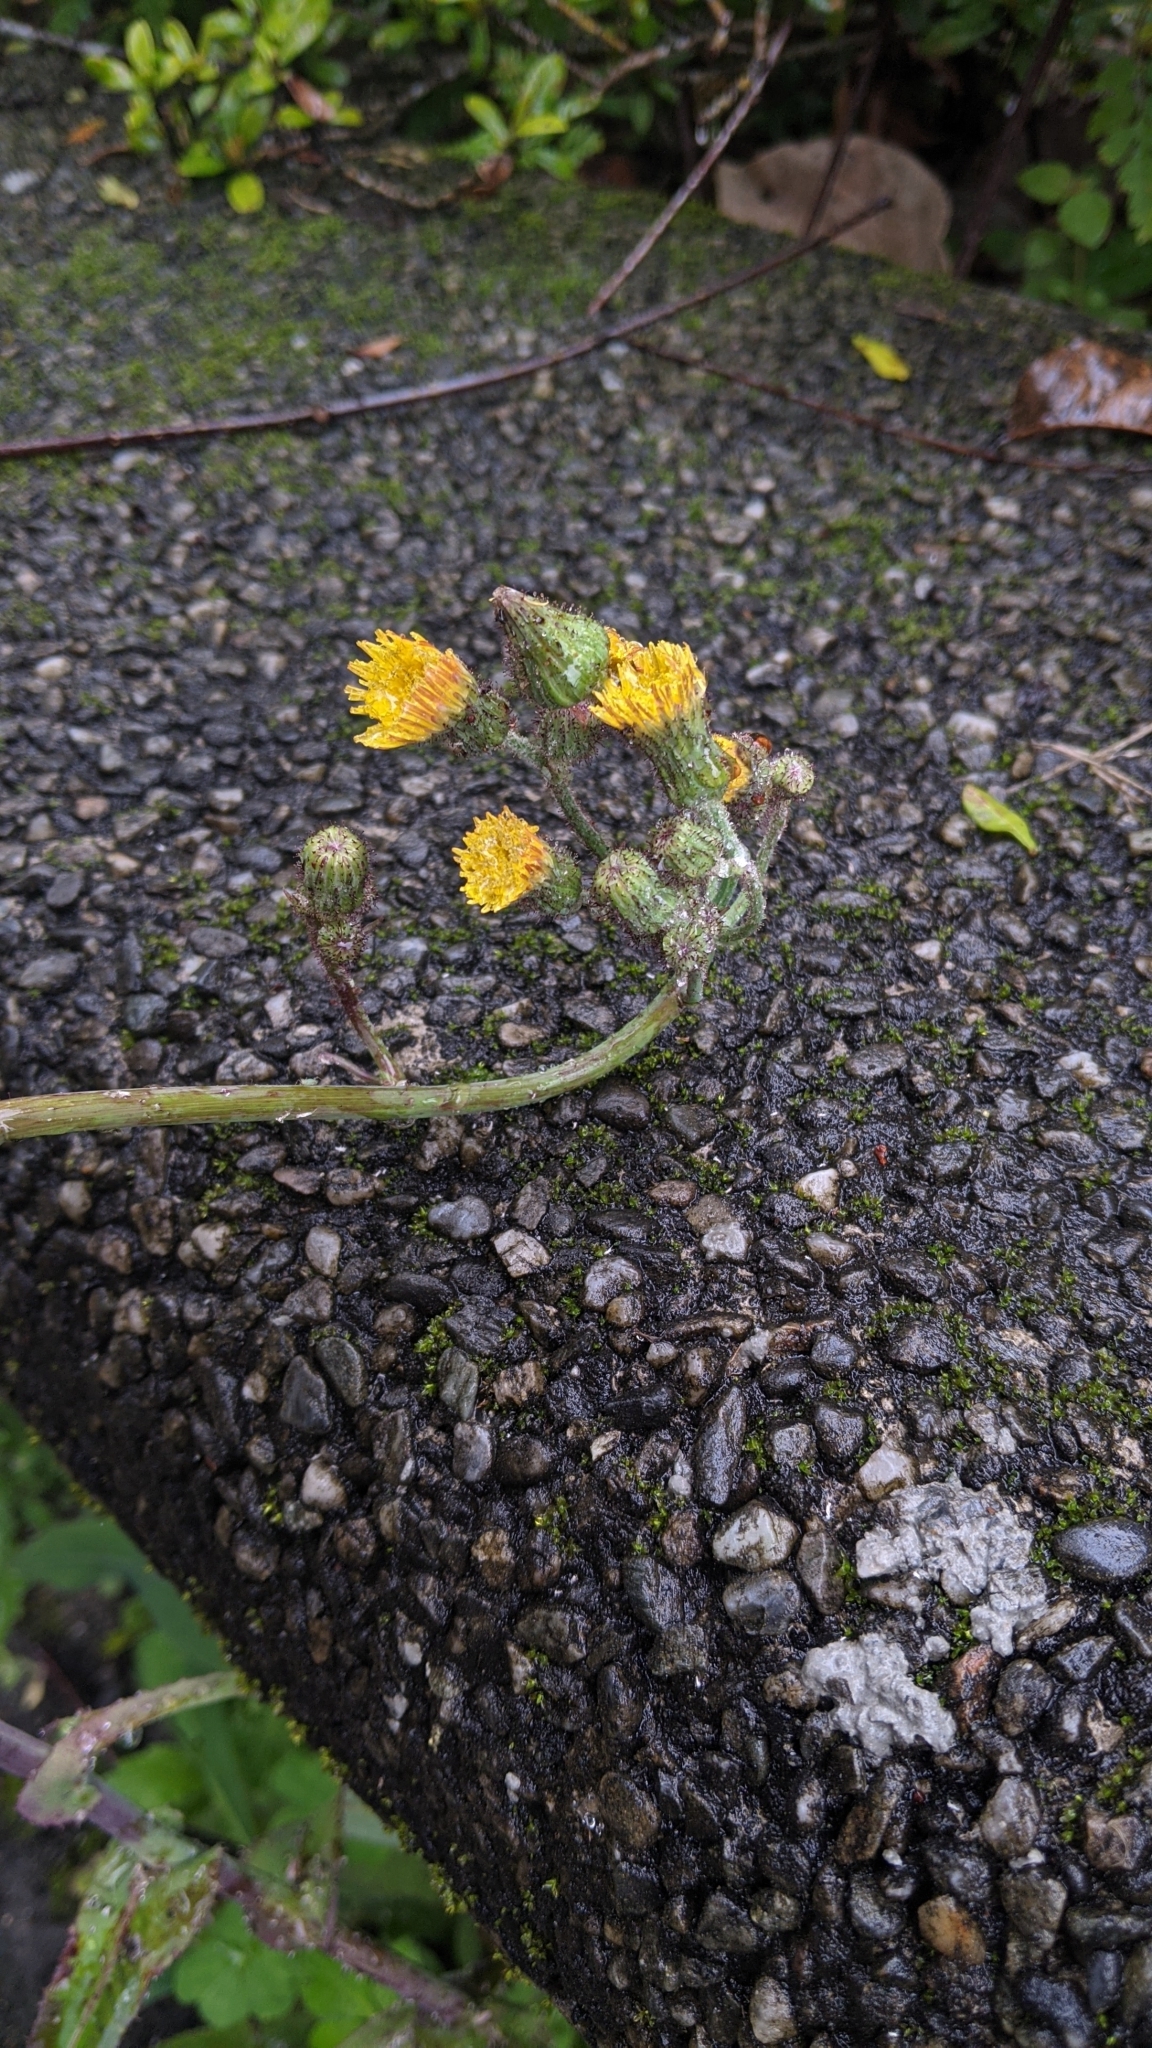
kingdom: Plantae
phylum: Tracheophyta
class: Magnoliopsida
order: Asterales
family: Asteraceae
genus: Sonchus
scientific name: Sonchus arvensis
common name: Perennial sow-thistle
